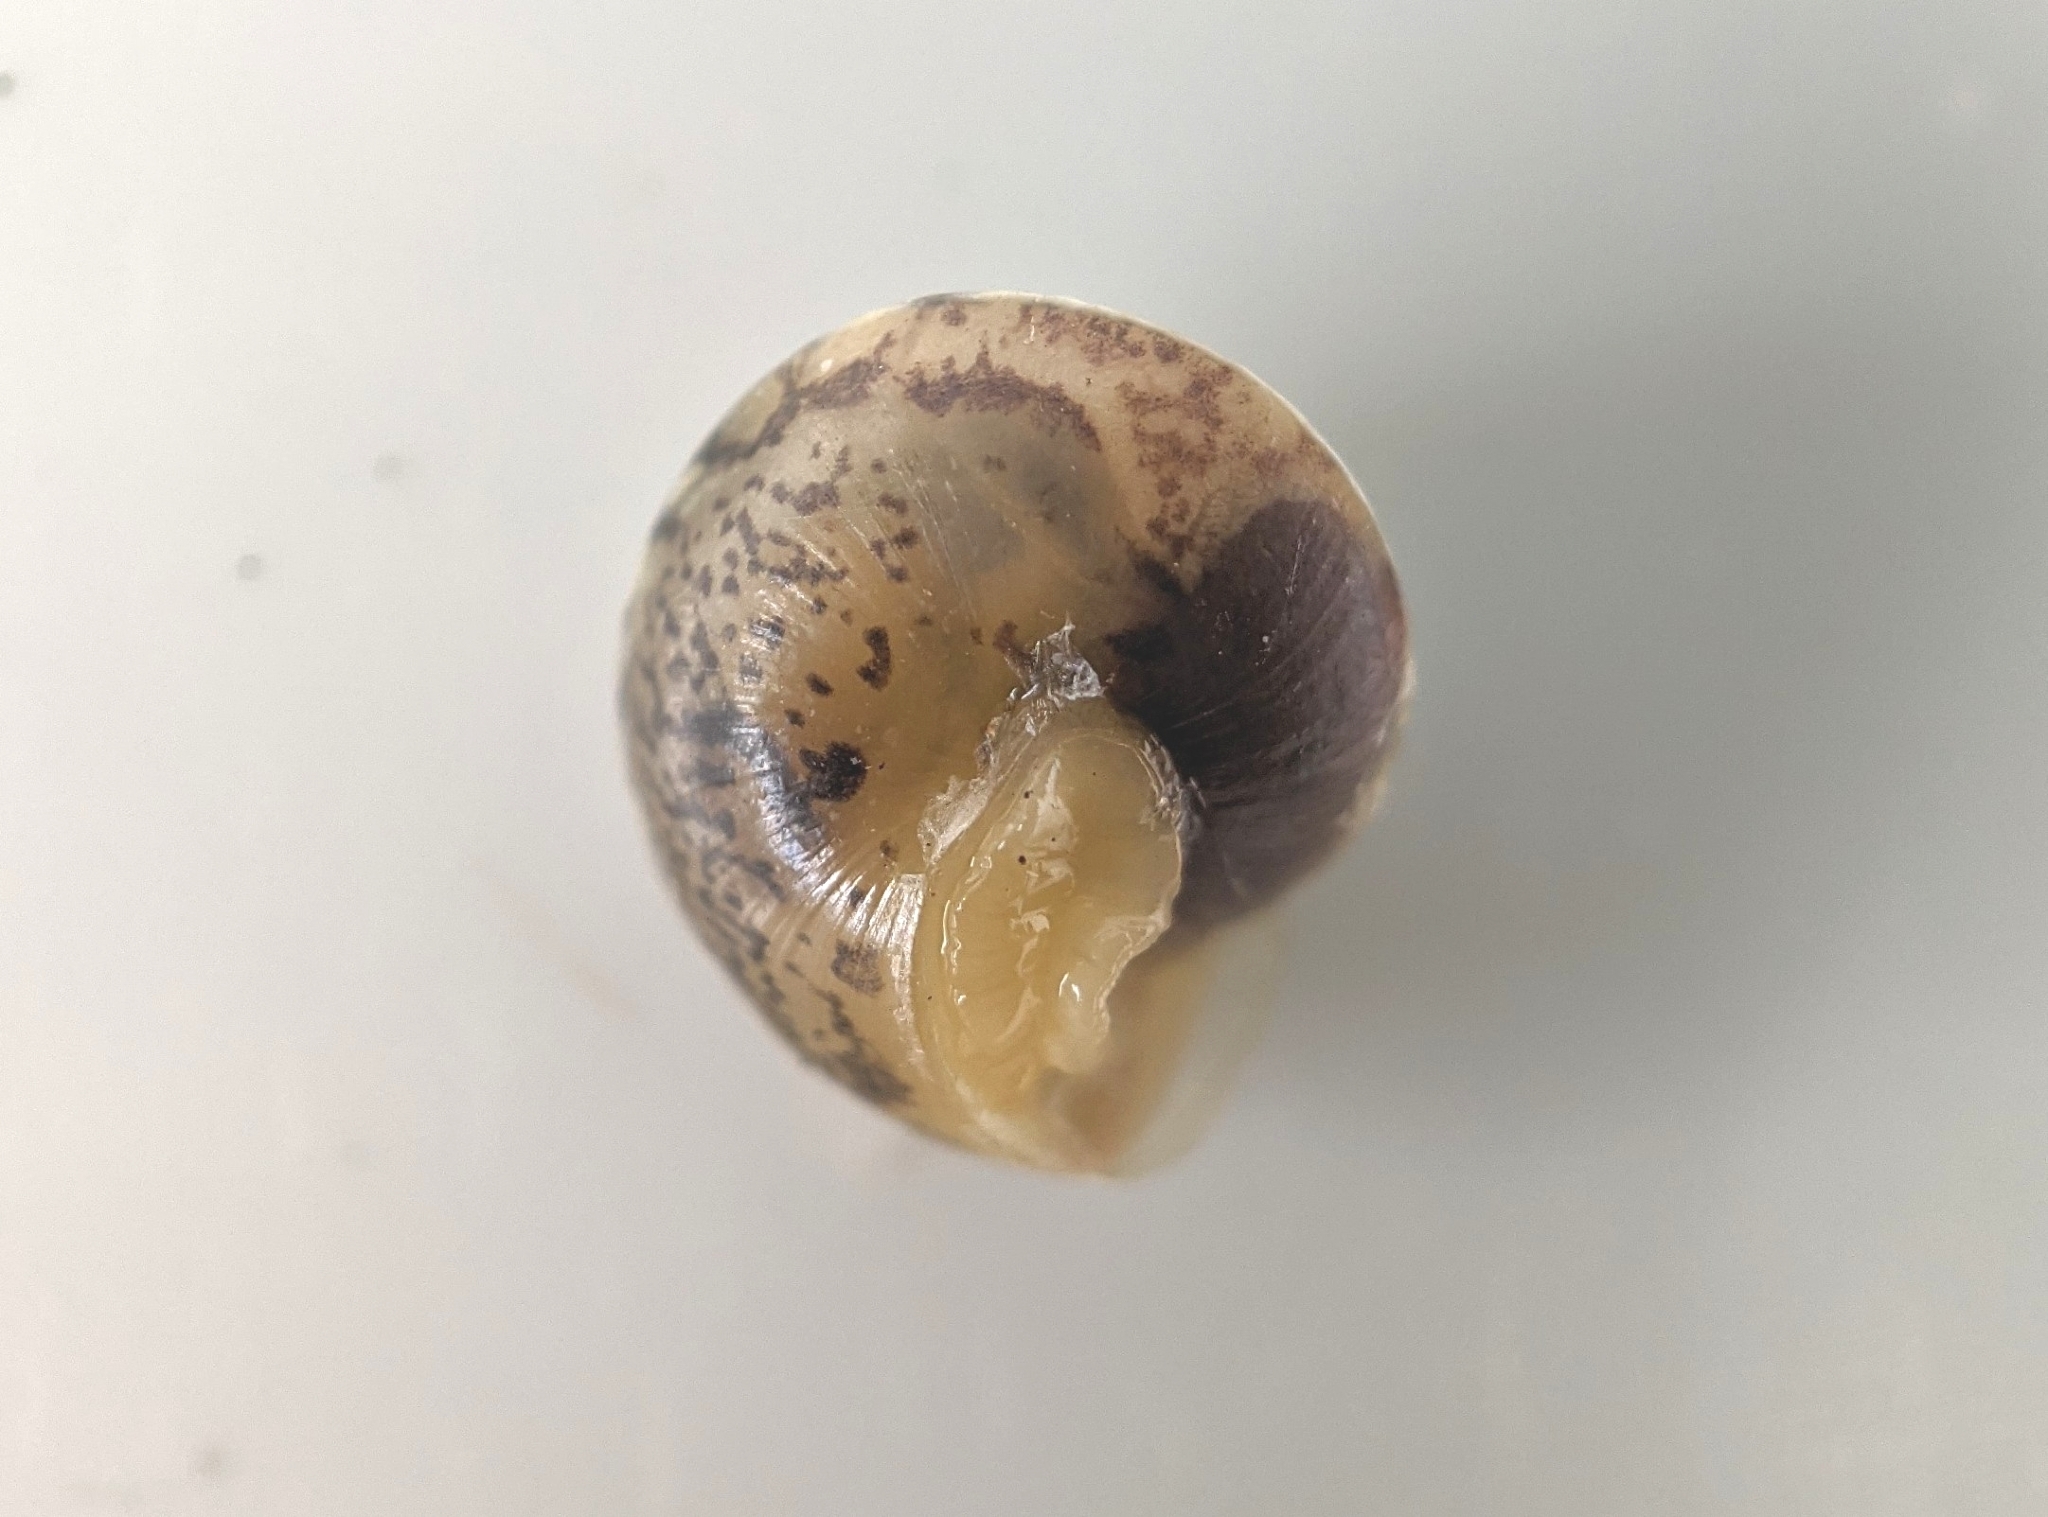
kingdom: Animalia
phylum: Mollusca
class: Gastropoda
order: Stylommatophora
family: Hygromiidae
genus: Hygromia
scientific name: Hygromia cinctella
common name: Girdled snail
